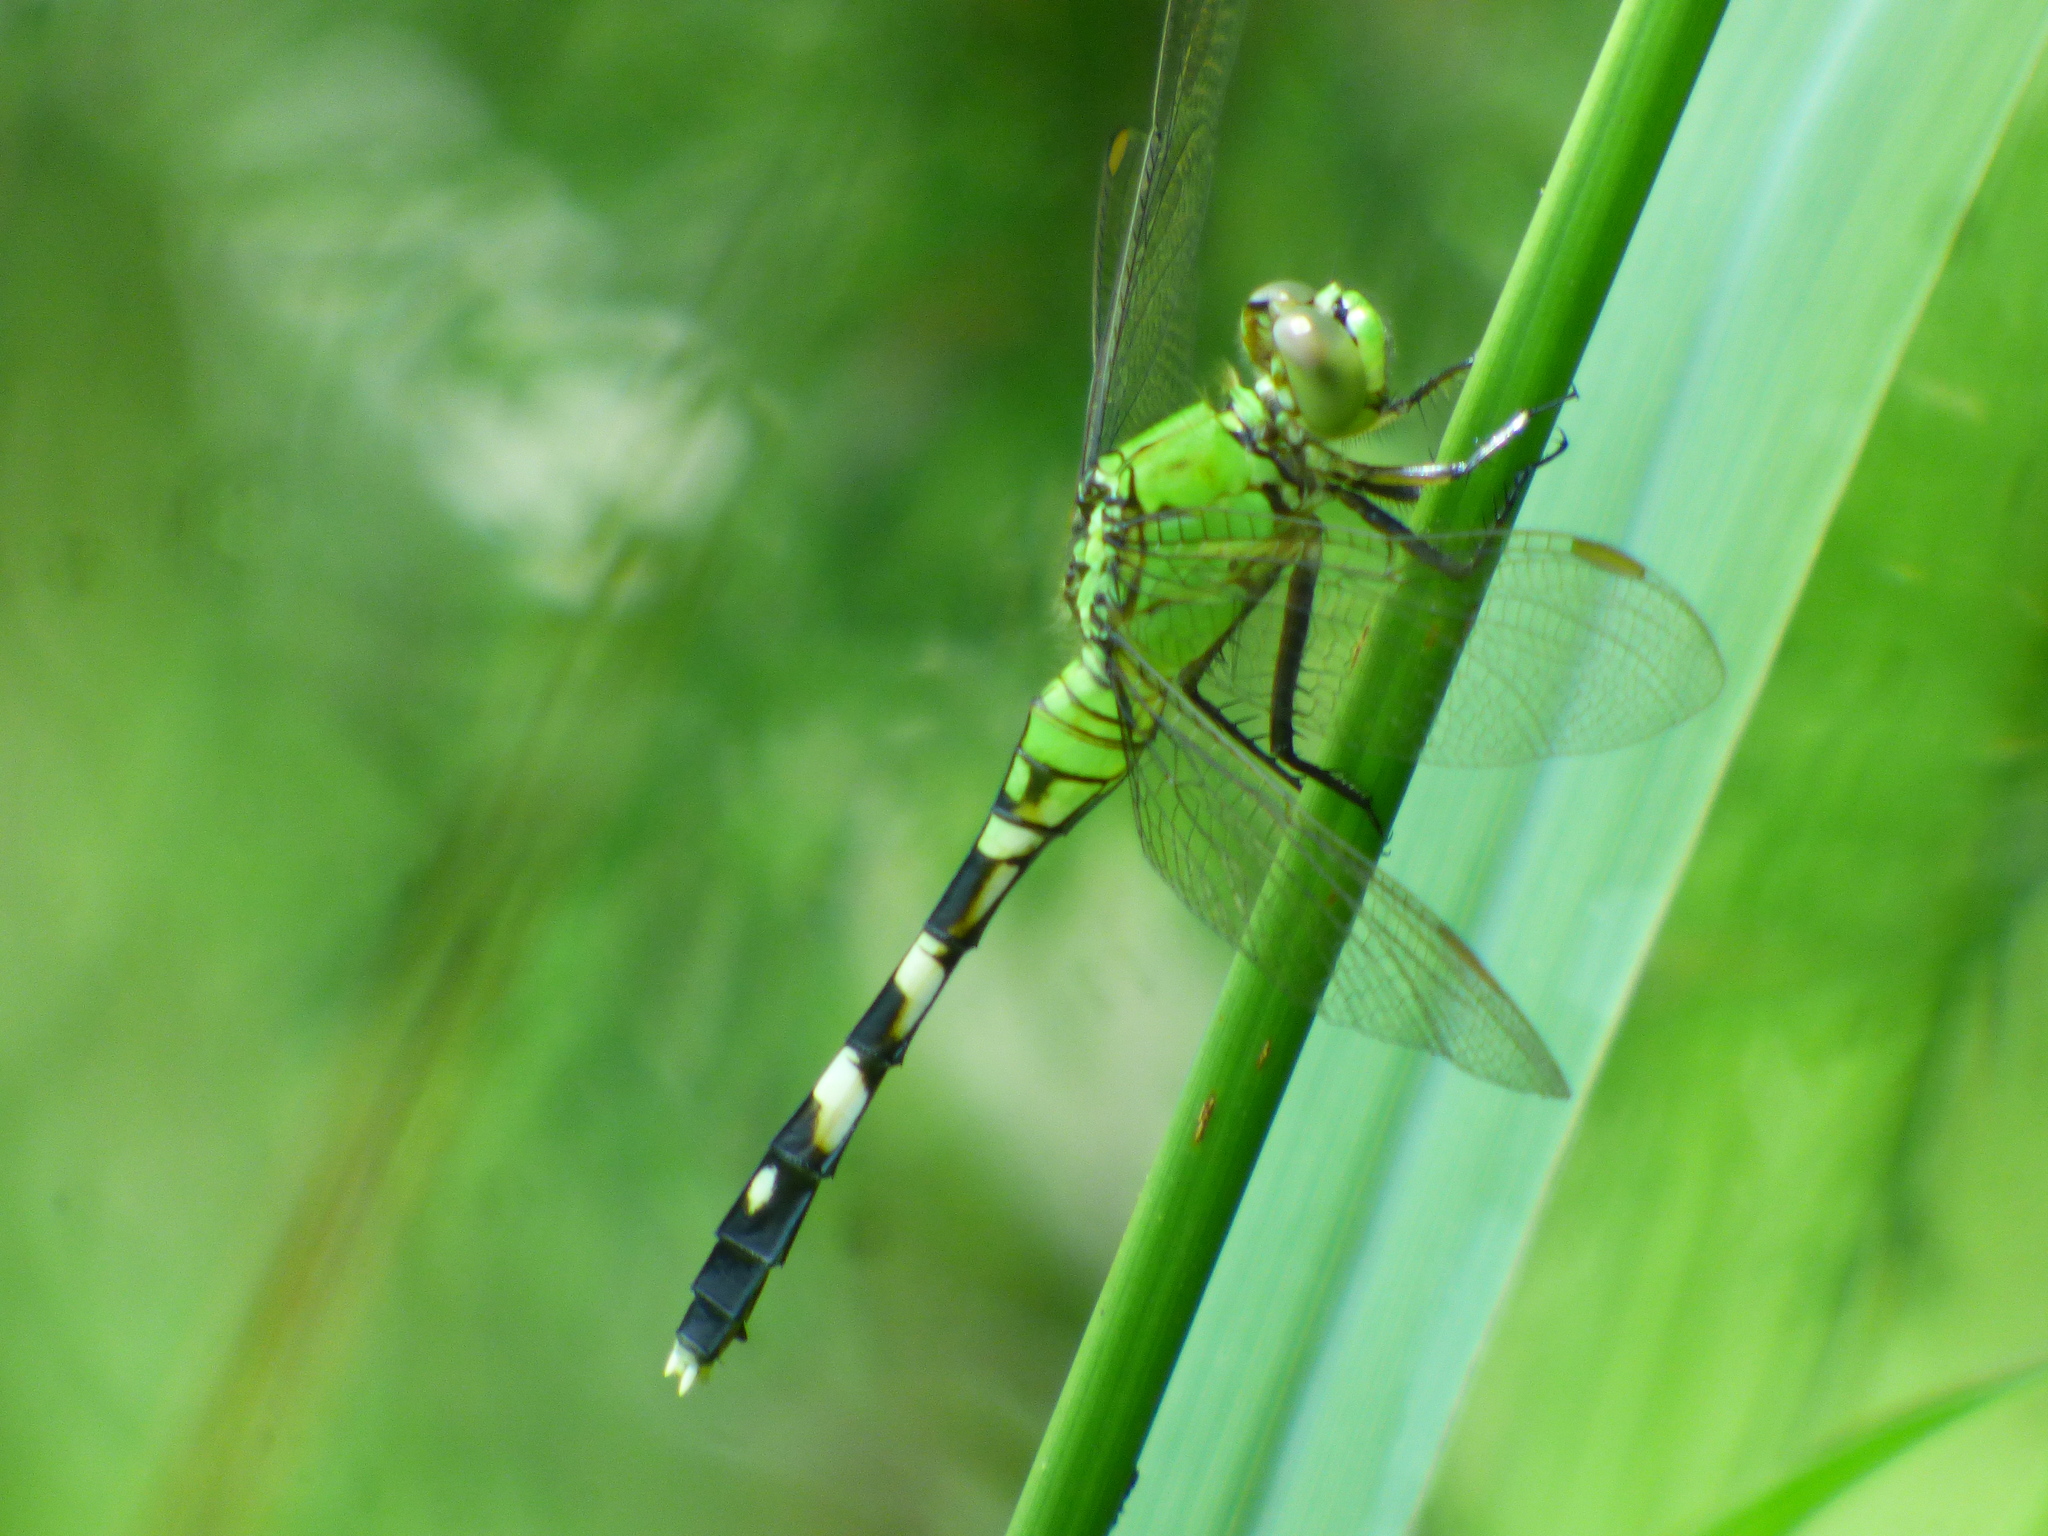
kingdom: Animalia
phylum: Arthropoda
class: Insecta
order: Odonata
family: Libellulidae
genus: Erythemis
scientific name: Erythemis simplicicollis
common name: Eastern pondhawk
